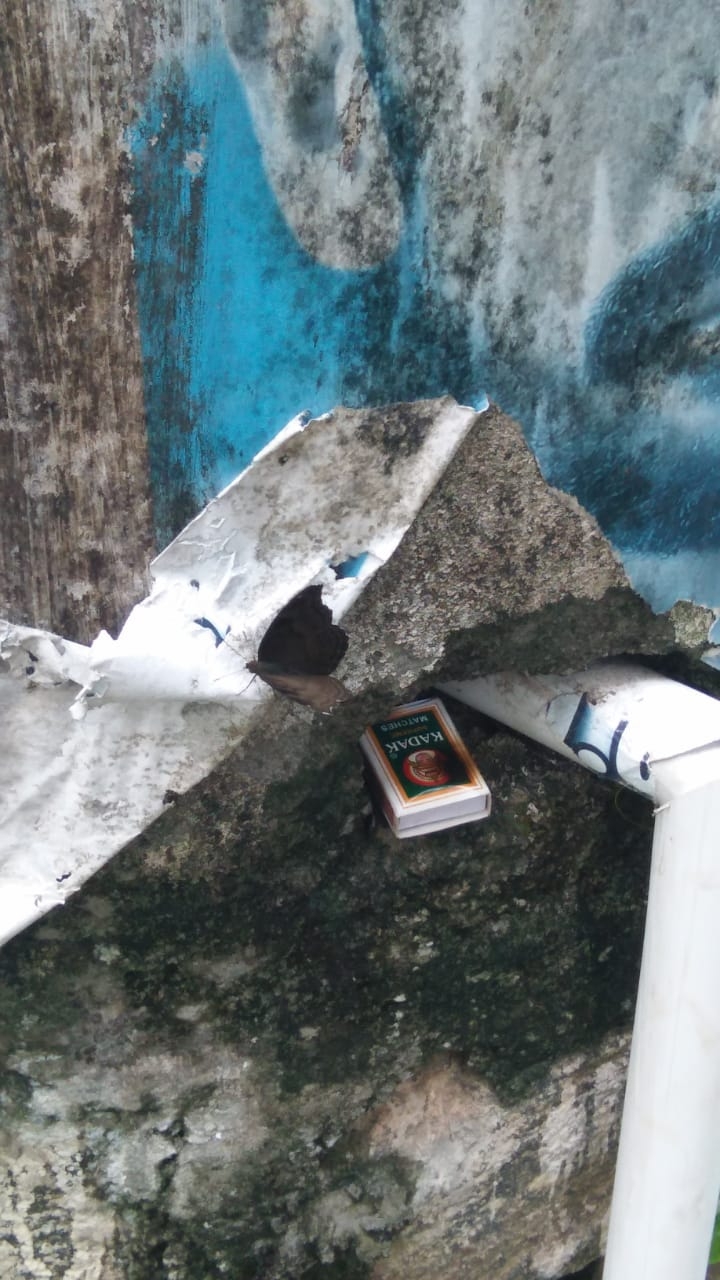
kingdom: Animalia
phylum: Arthropoda
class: Insecta
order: Lepidoptera
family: Nymphalidae
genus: Junonia
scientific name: Junonia iphita
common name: Chocolate pansy
